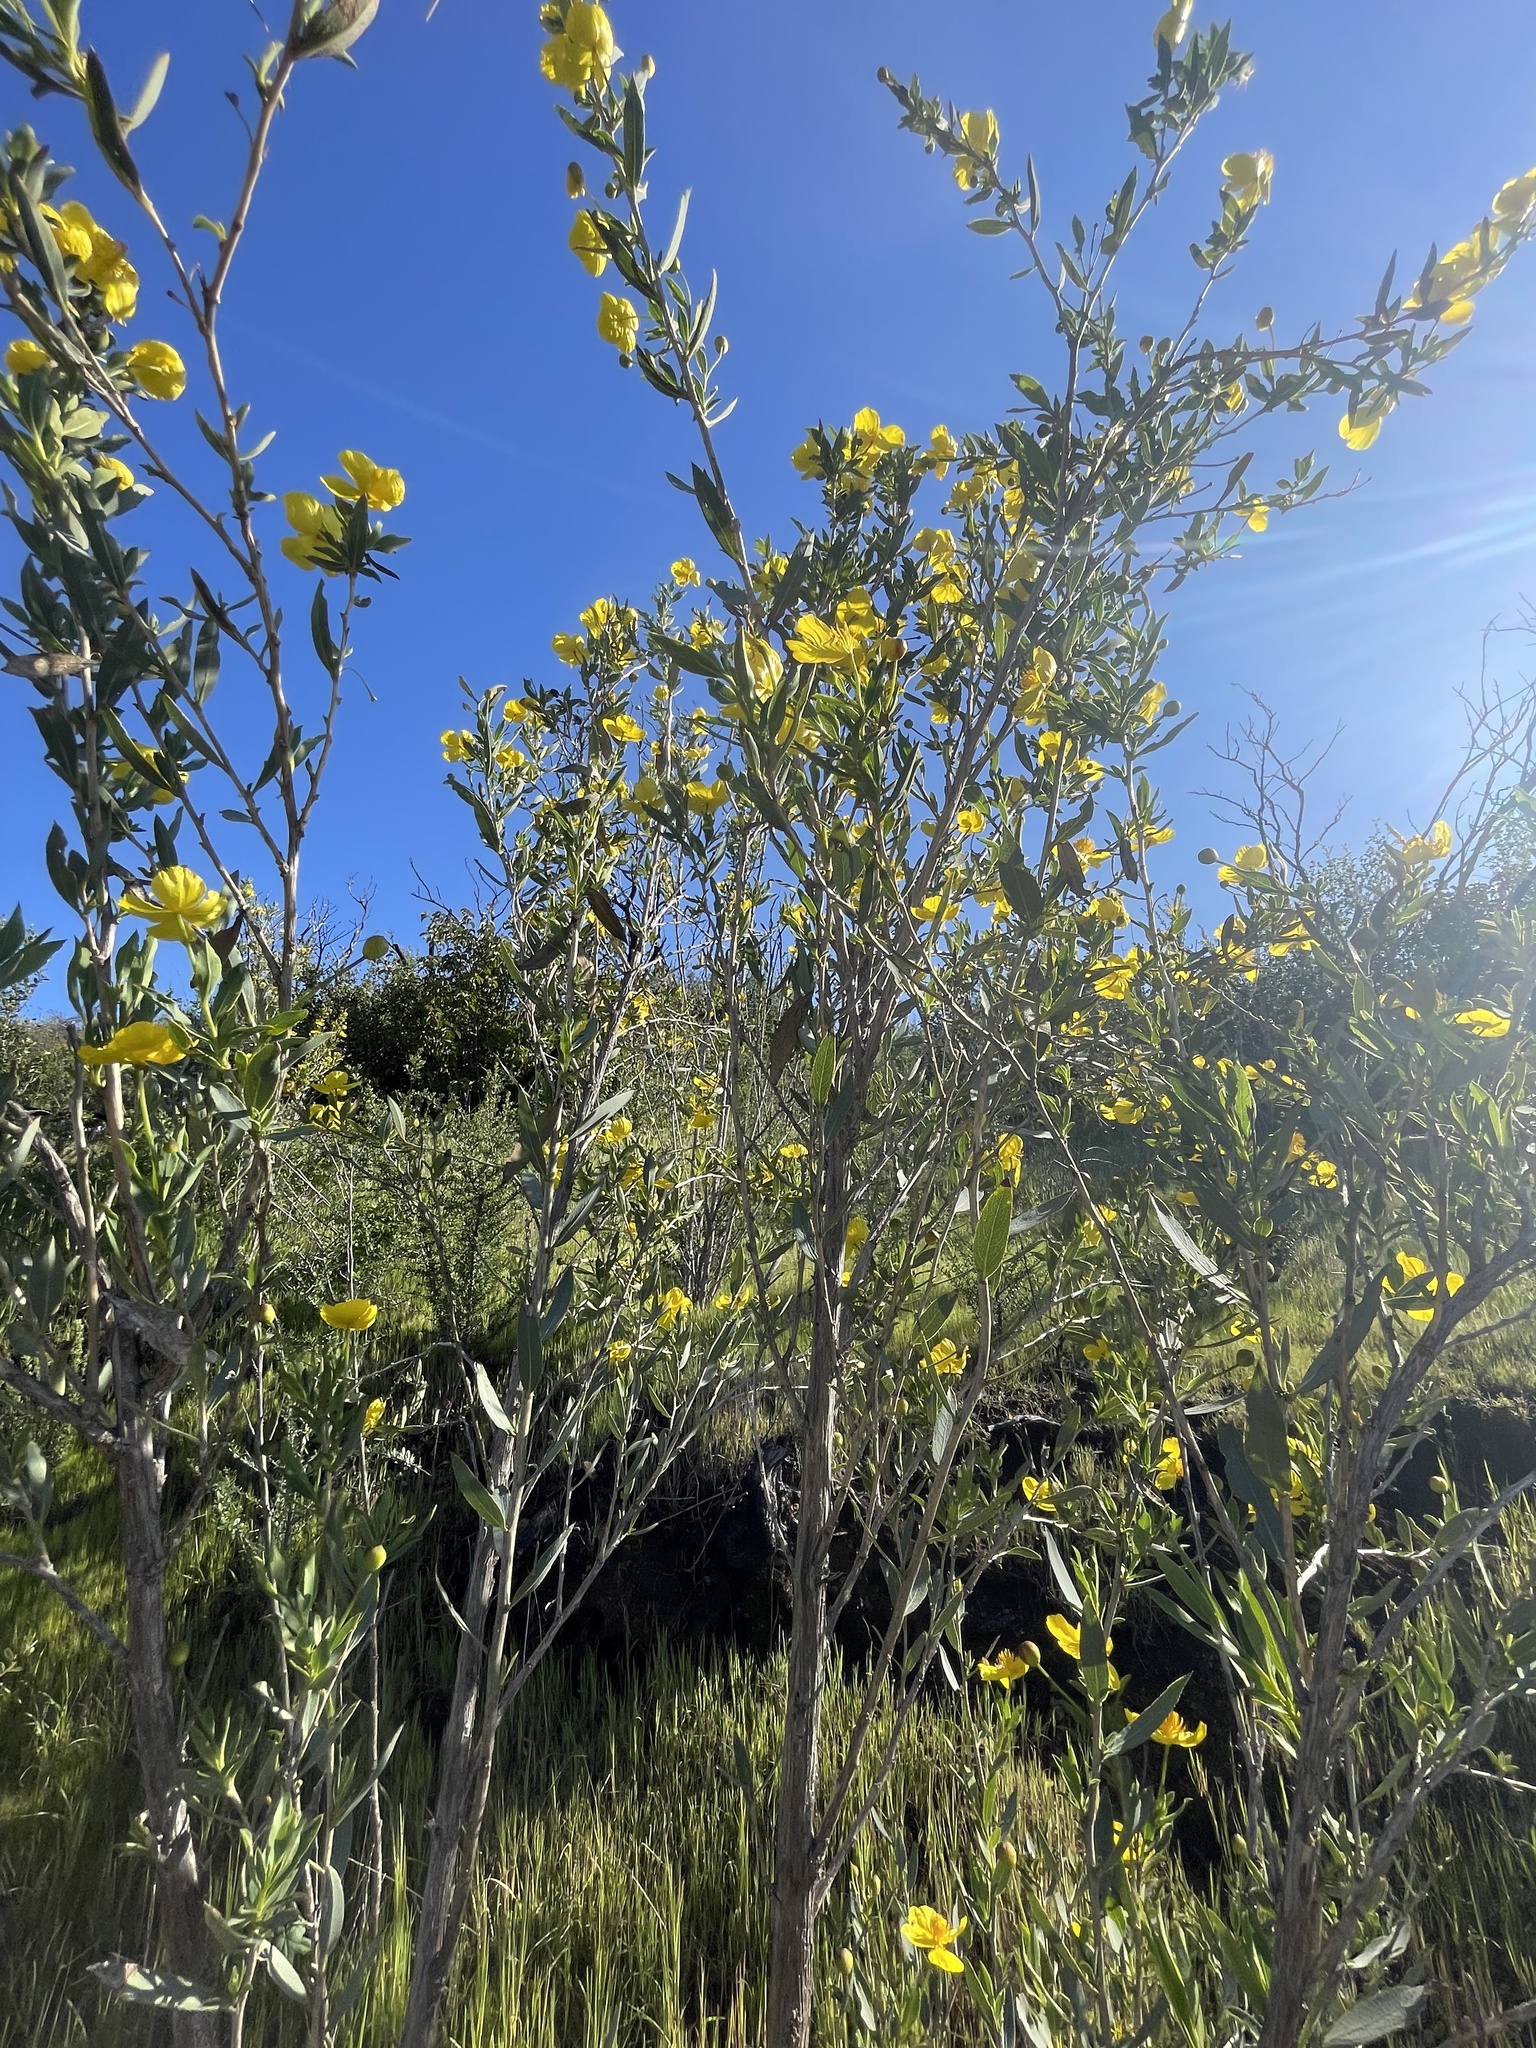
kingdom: Plantae
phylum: Tracheophyta
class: Magnoliopsida
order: Ranunculales
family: Papaveraceae
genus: Dendromecon
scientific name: Dendromecon rigida
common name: Tree poppy
